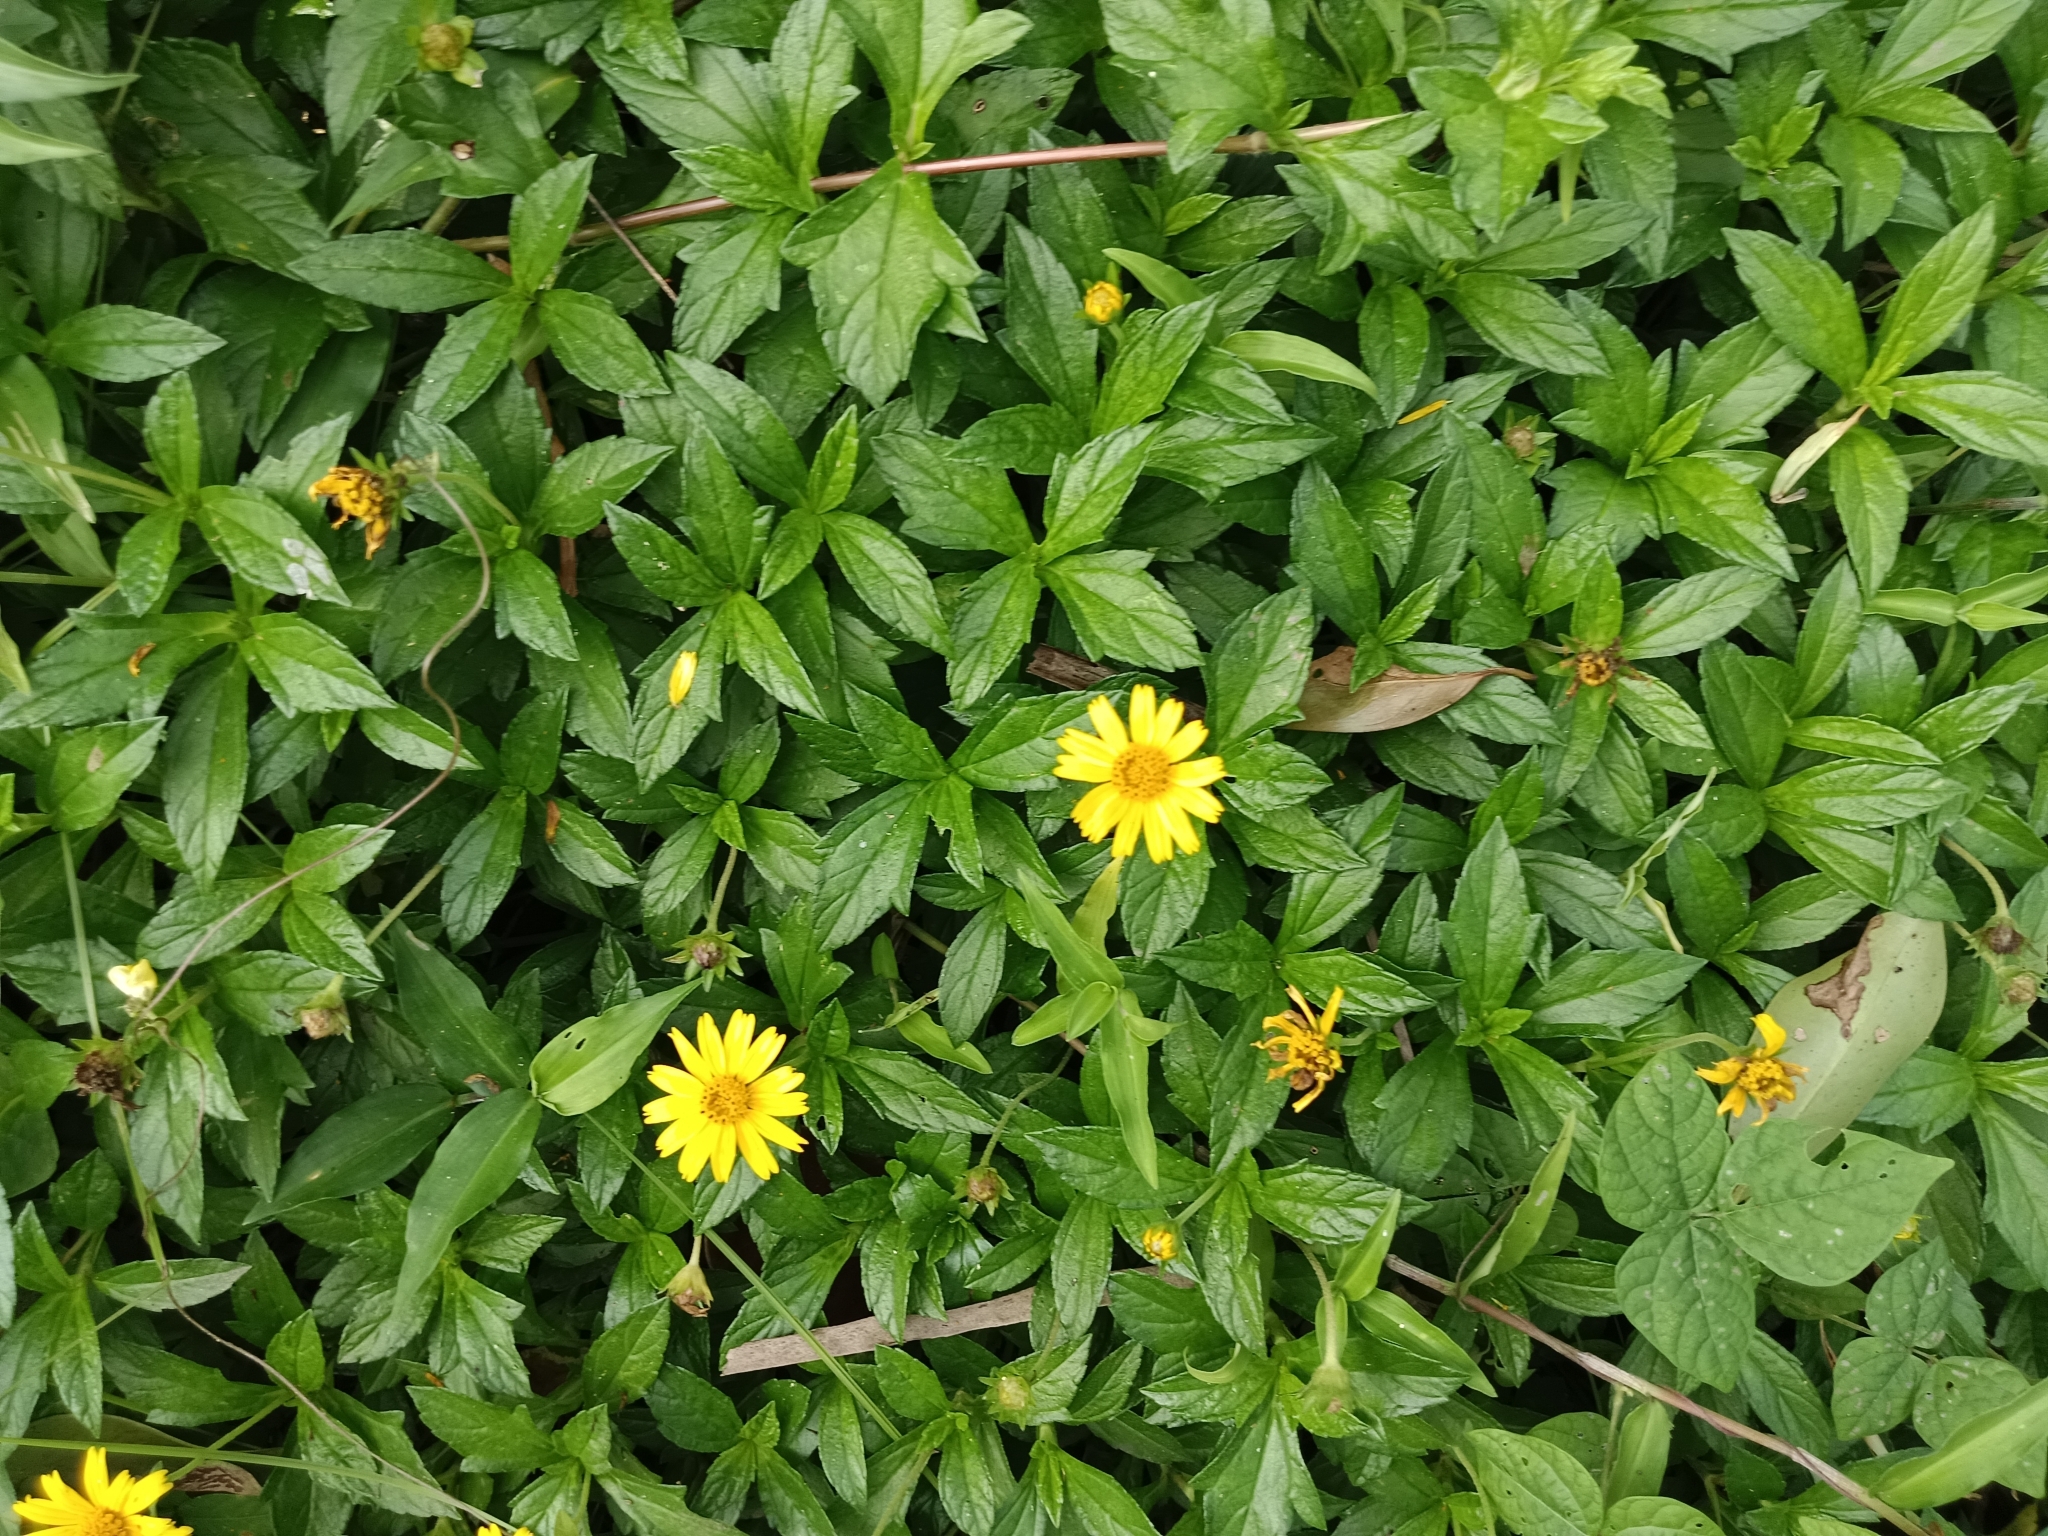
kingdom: Plantae
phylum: Tracheophyta
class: Magnoliopsida
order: Asterales
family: Asteraceae
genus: Sphagneticola
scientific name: Sphagneticola trilobata
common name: Bay biscayne creeping-oxeye
